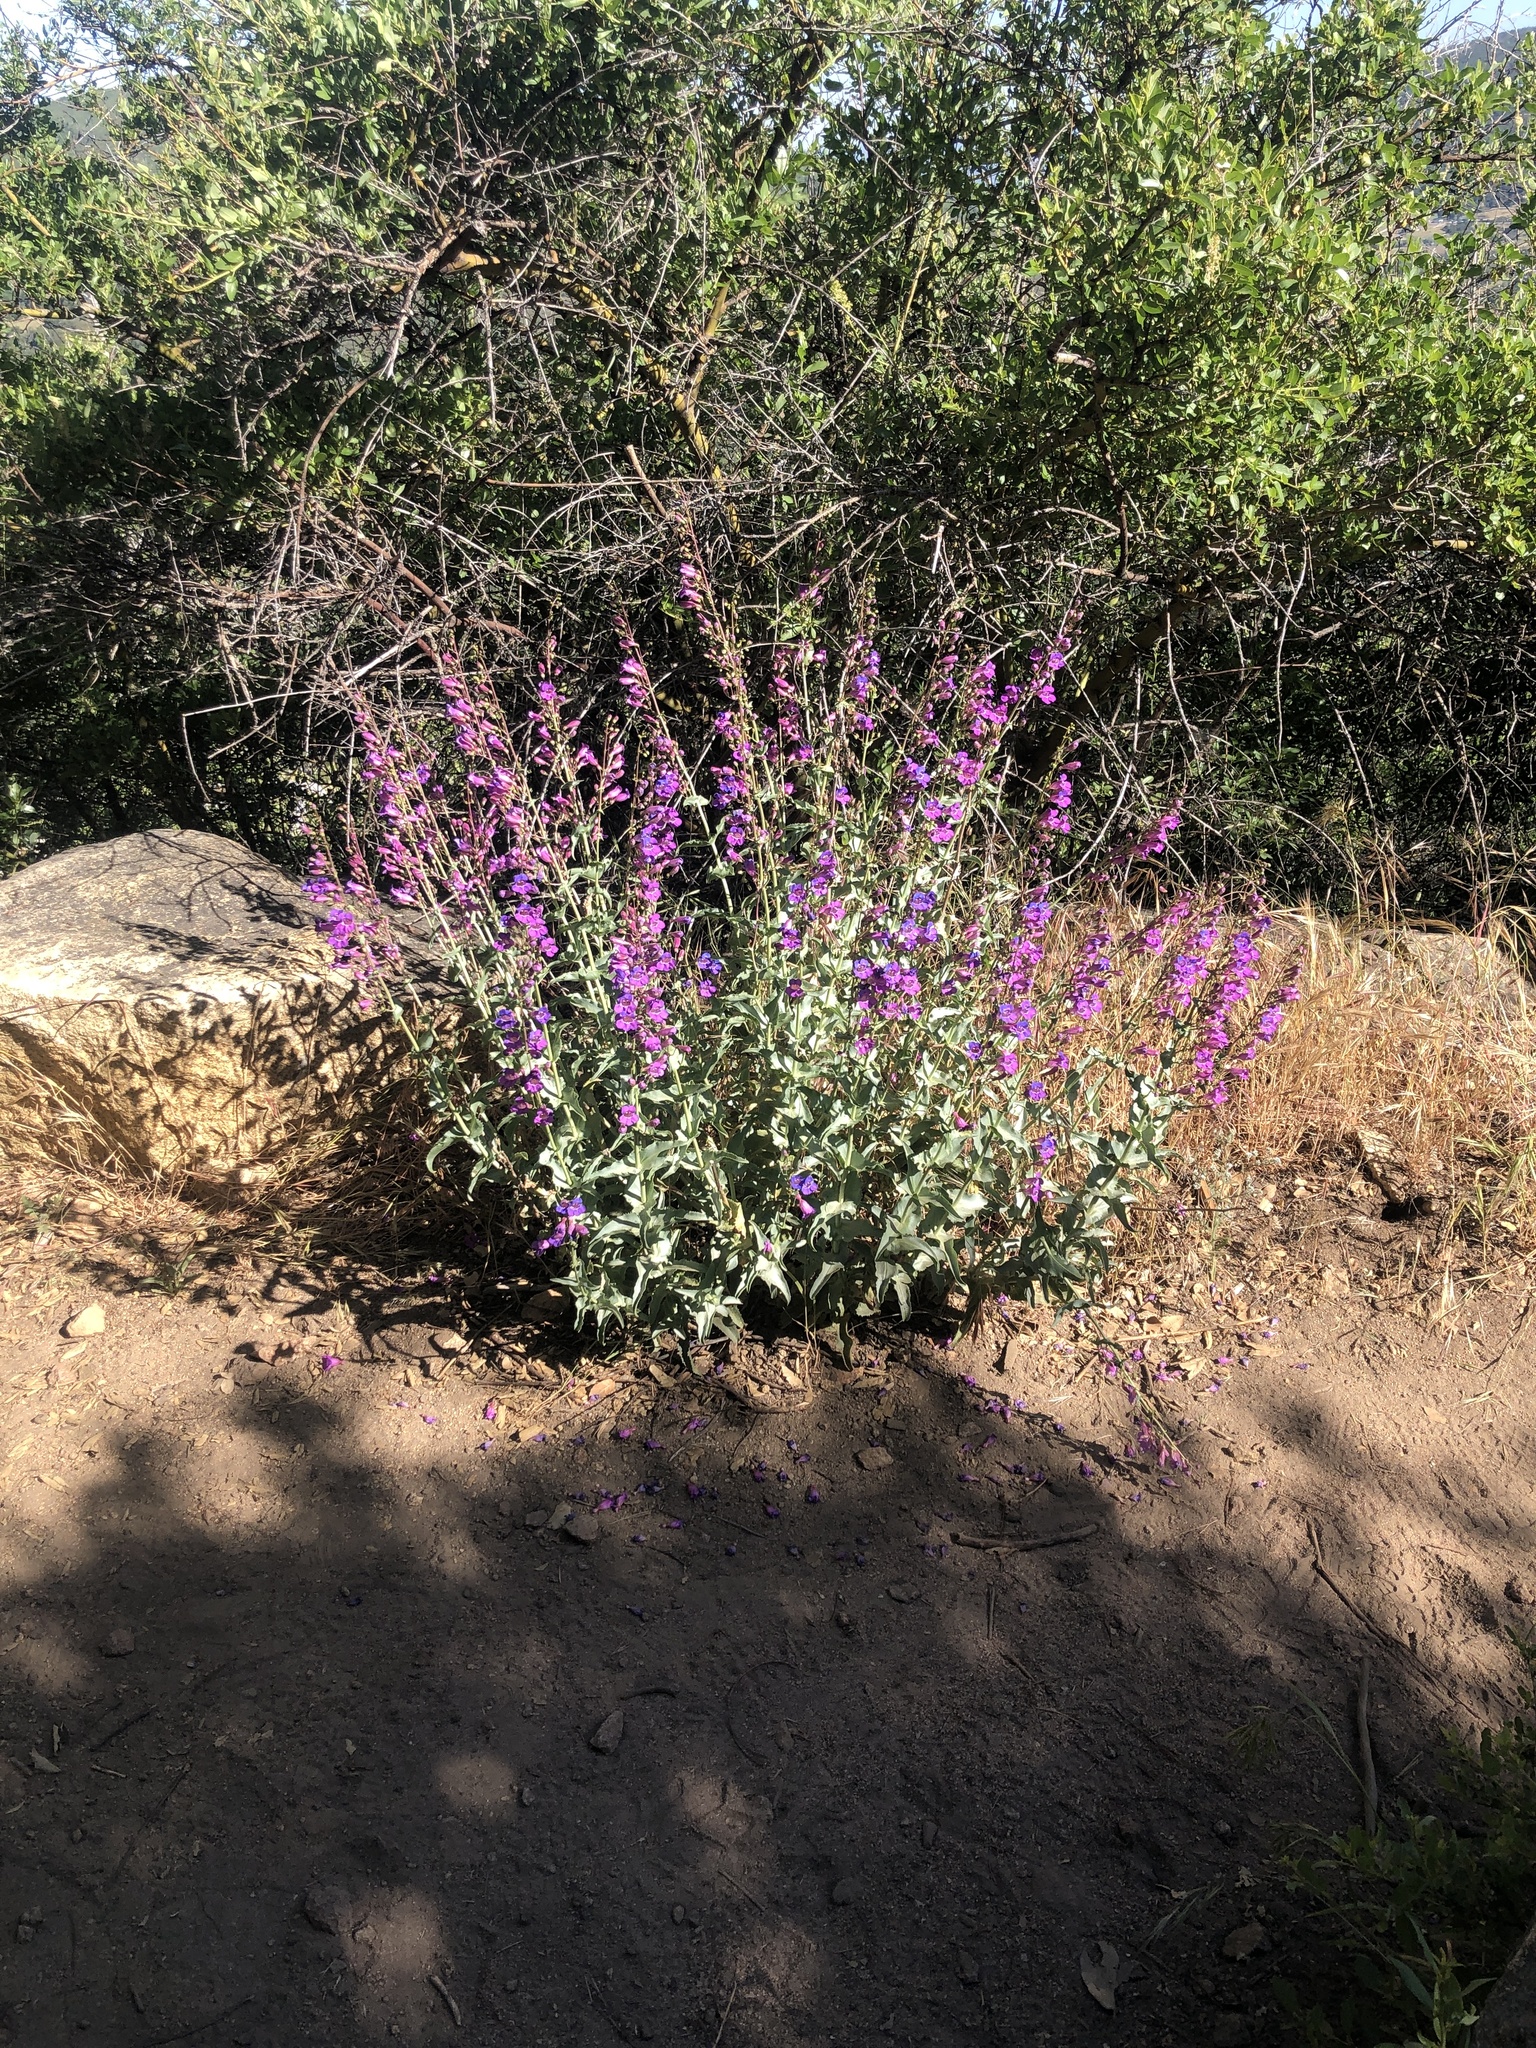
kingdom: Plantae
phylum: Tracheophyta
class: Magnoliopsida
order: Lamiales
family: Plantaginaceae
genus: Penstemon
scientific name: Penstemon spectabilis
